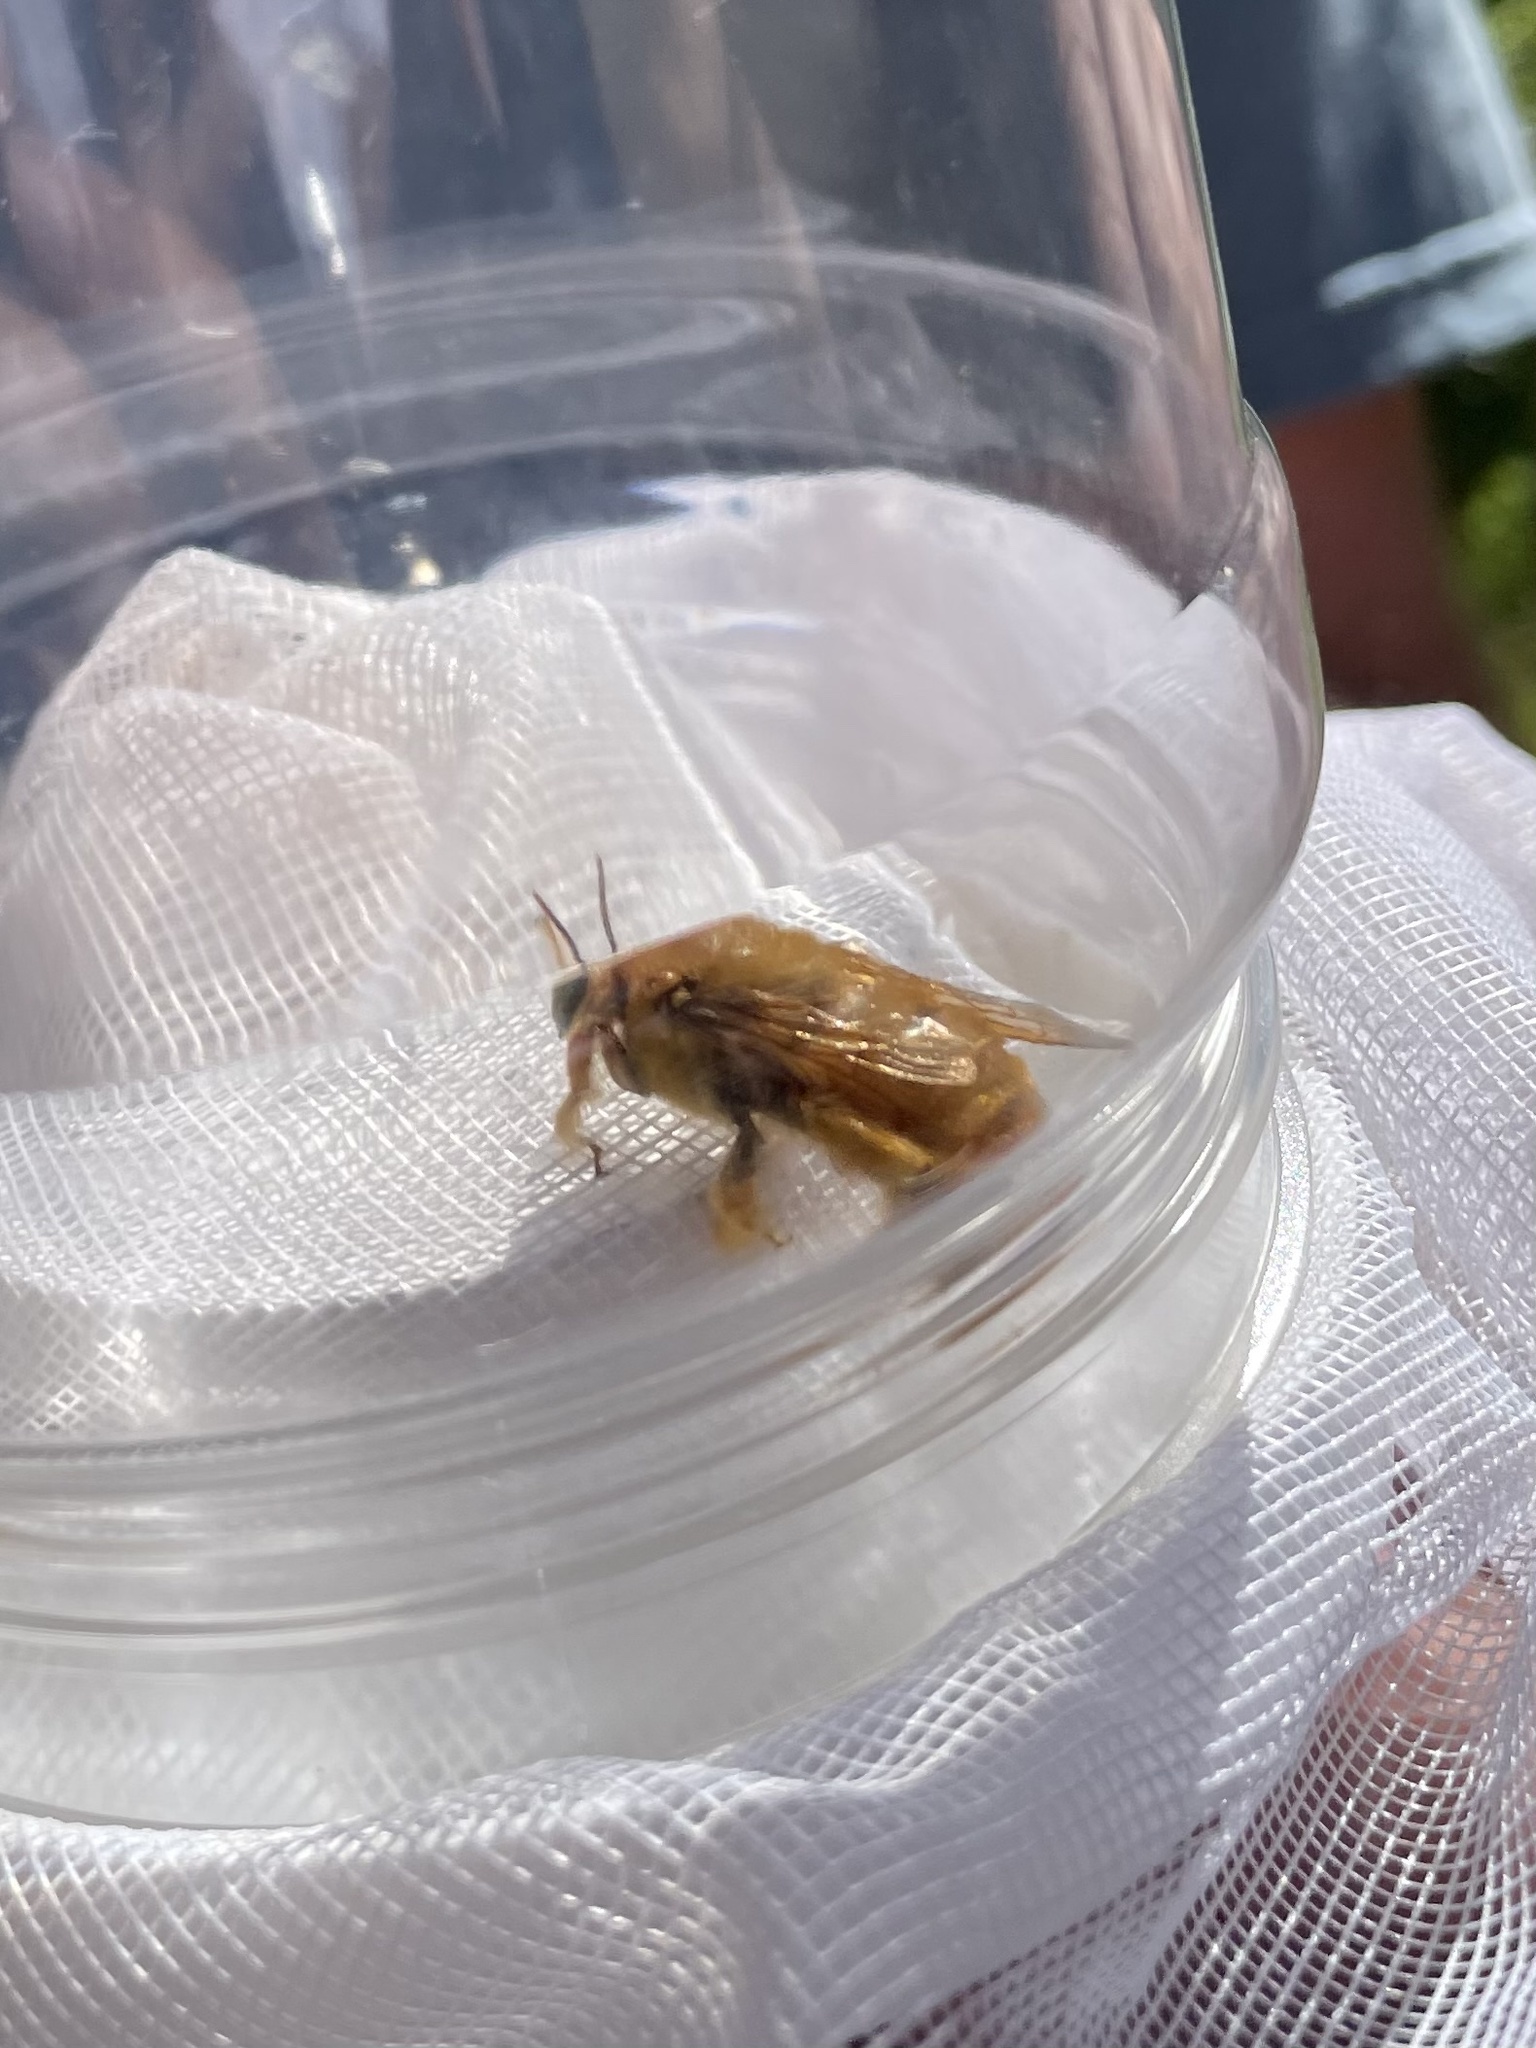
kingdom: Animalia
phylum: Arthropoda
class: Insecta
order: Hymenoptera
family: Apidae
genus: Xylocopa
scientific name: Xylocopa sonorina
